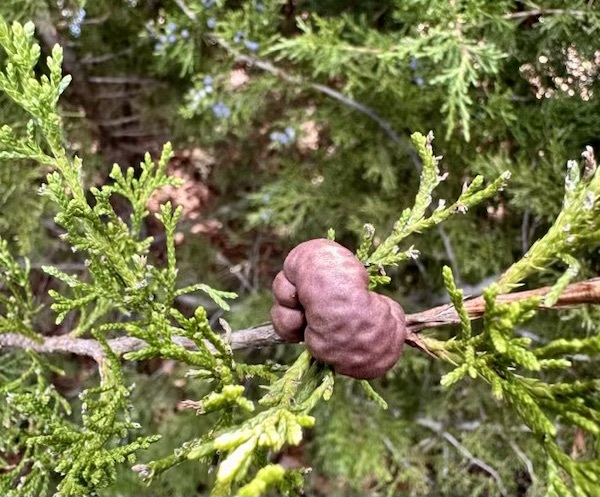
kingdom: Fungi
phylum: Basidiomycota
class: Pucciniomycetes
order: Pucciniales
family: Gymnosporangiaceae
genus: Gymnosporangium
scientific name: Gymnosporangium juniperi-virginianae
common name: Juniper-apple rust
